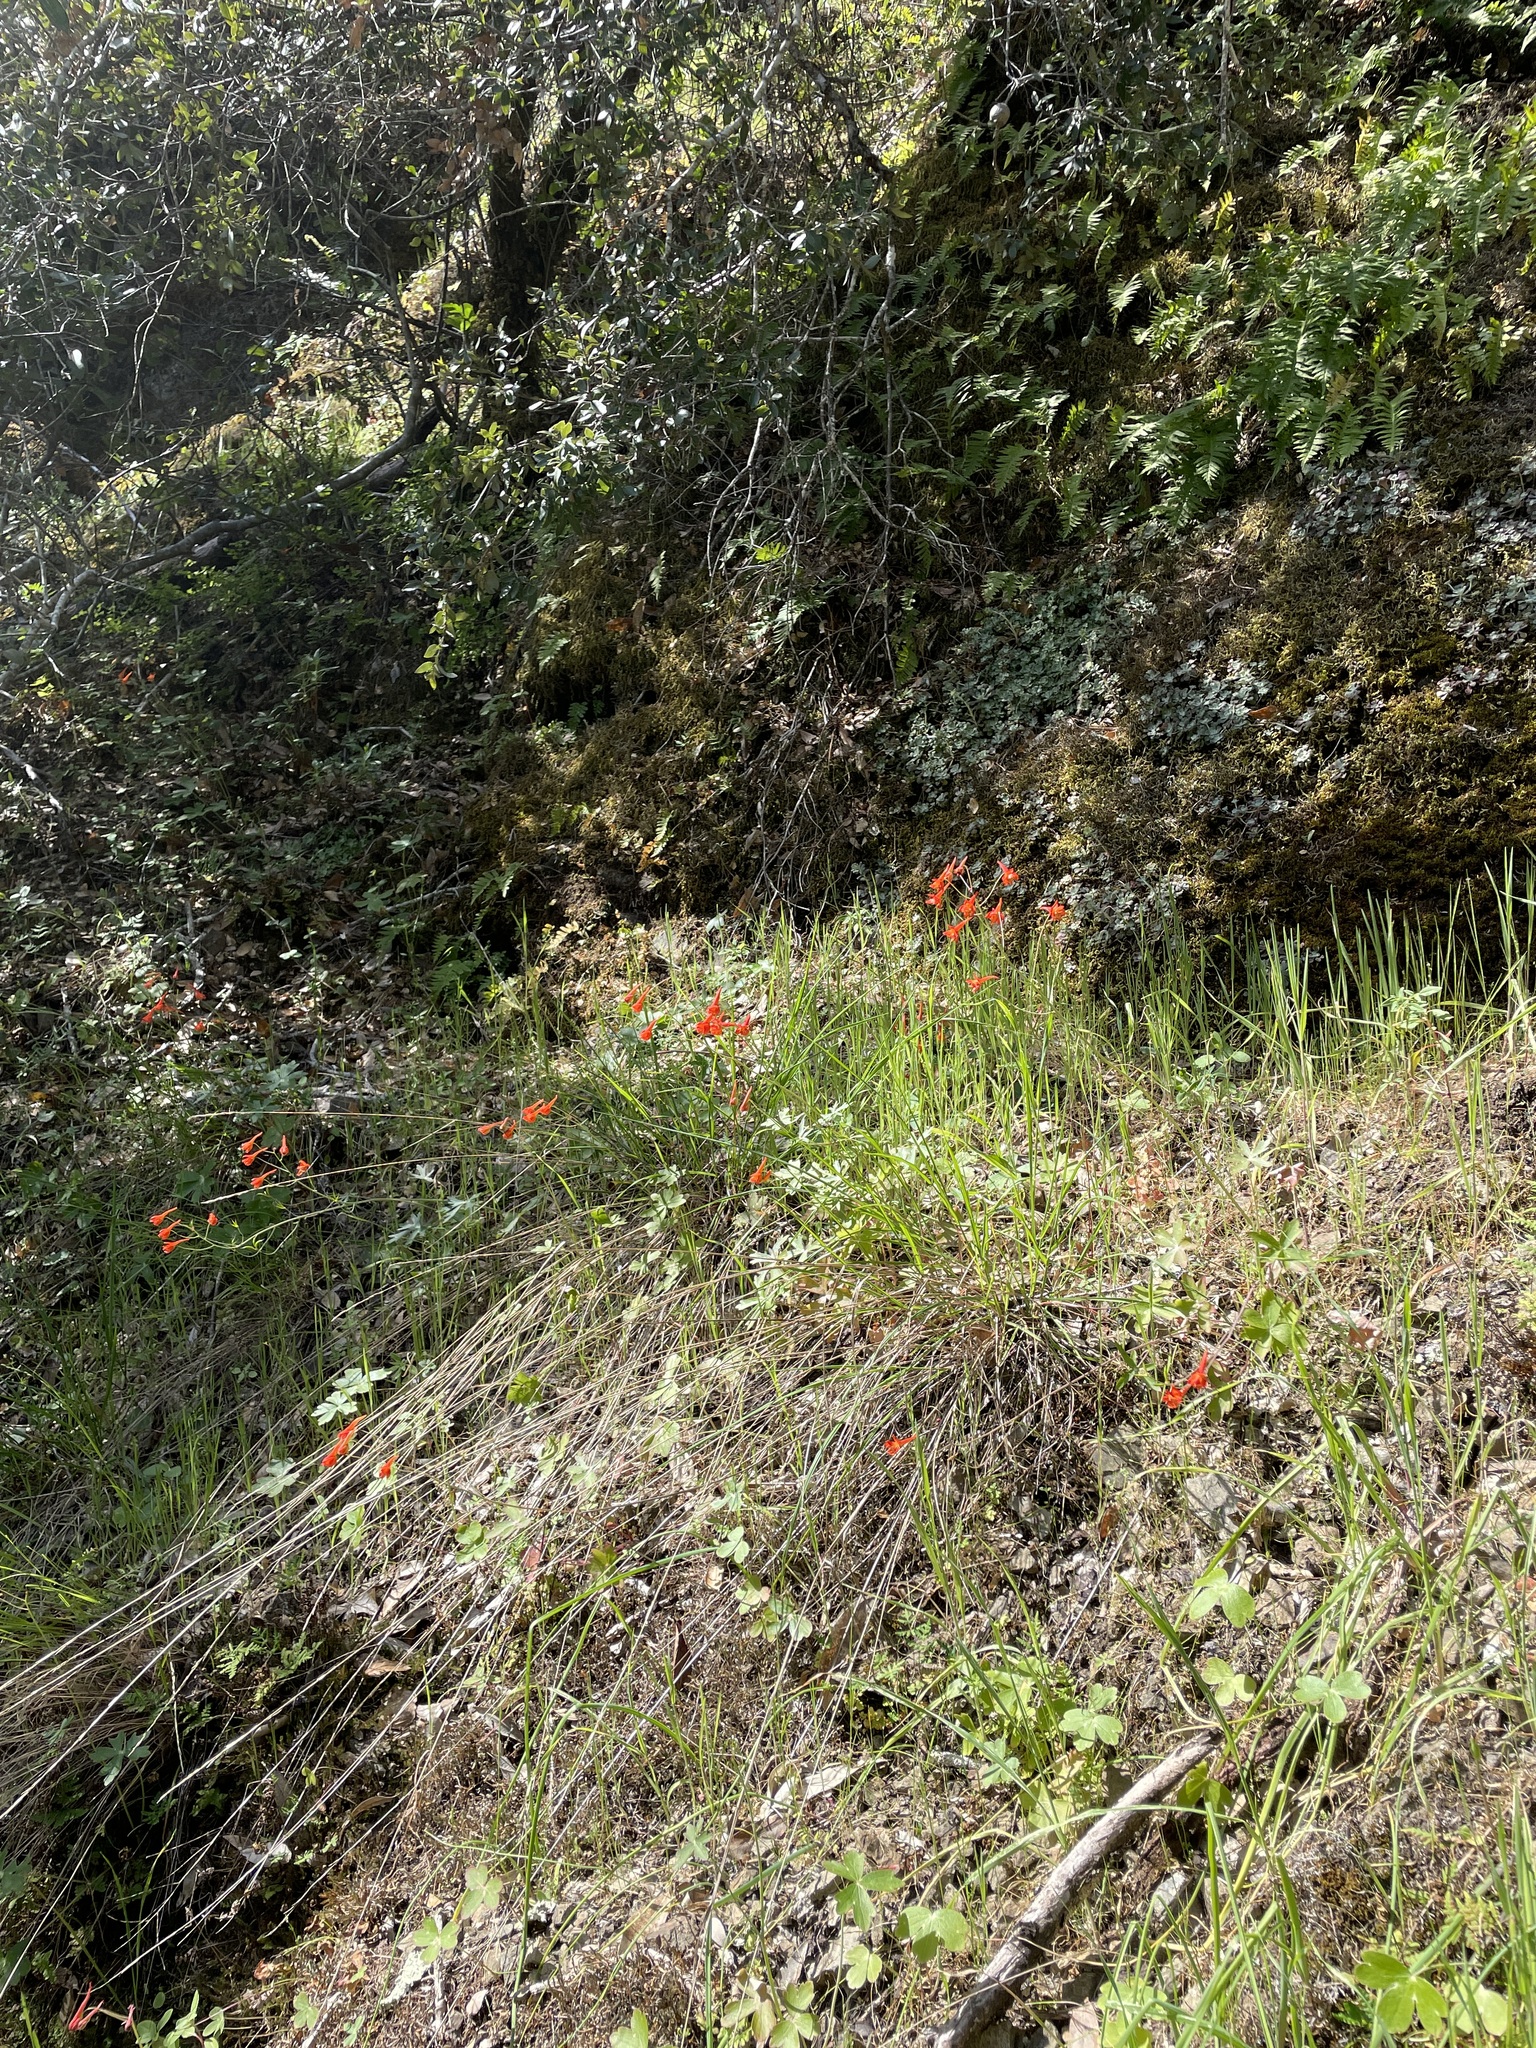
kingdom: Plantae
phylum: Tracheophyta
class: Magnoliopsida
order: Ranunculales
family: Ranunculaceae
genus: Delphinium
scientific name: Delphinium nudicaule
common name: Red larkspur
